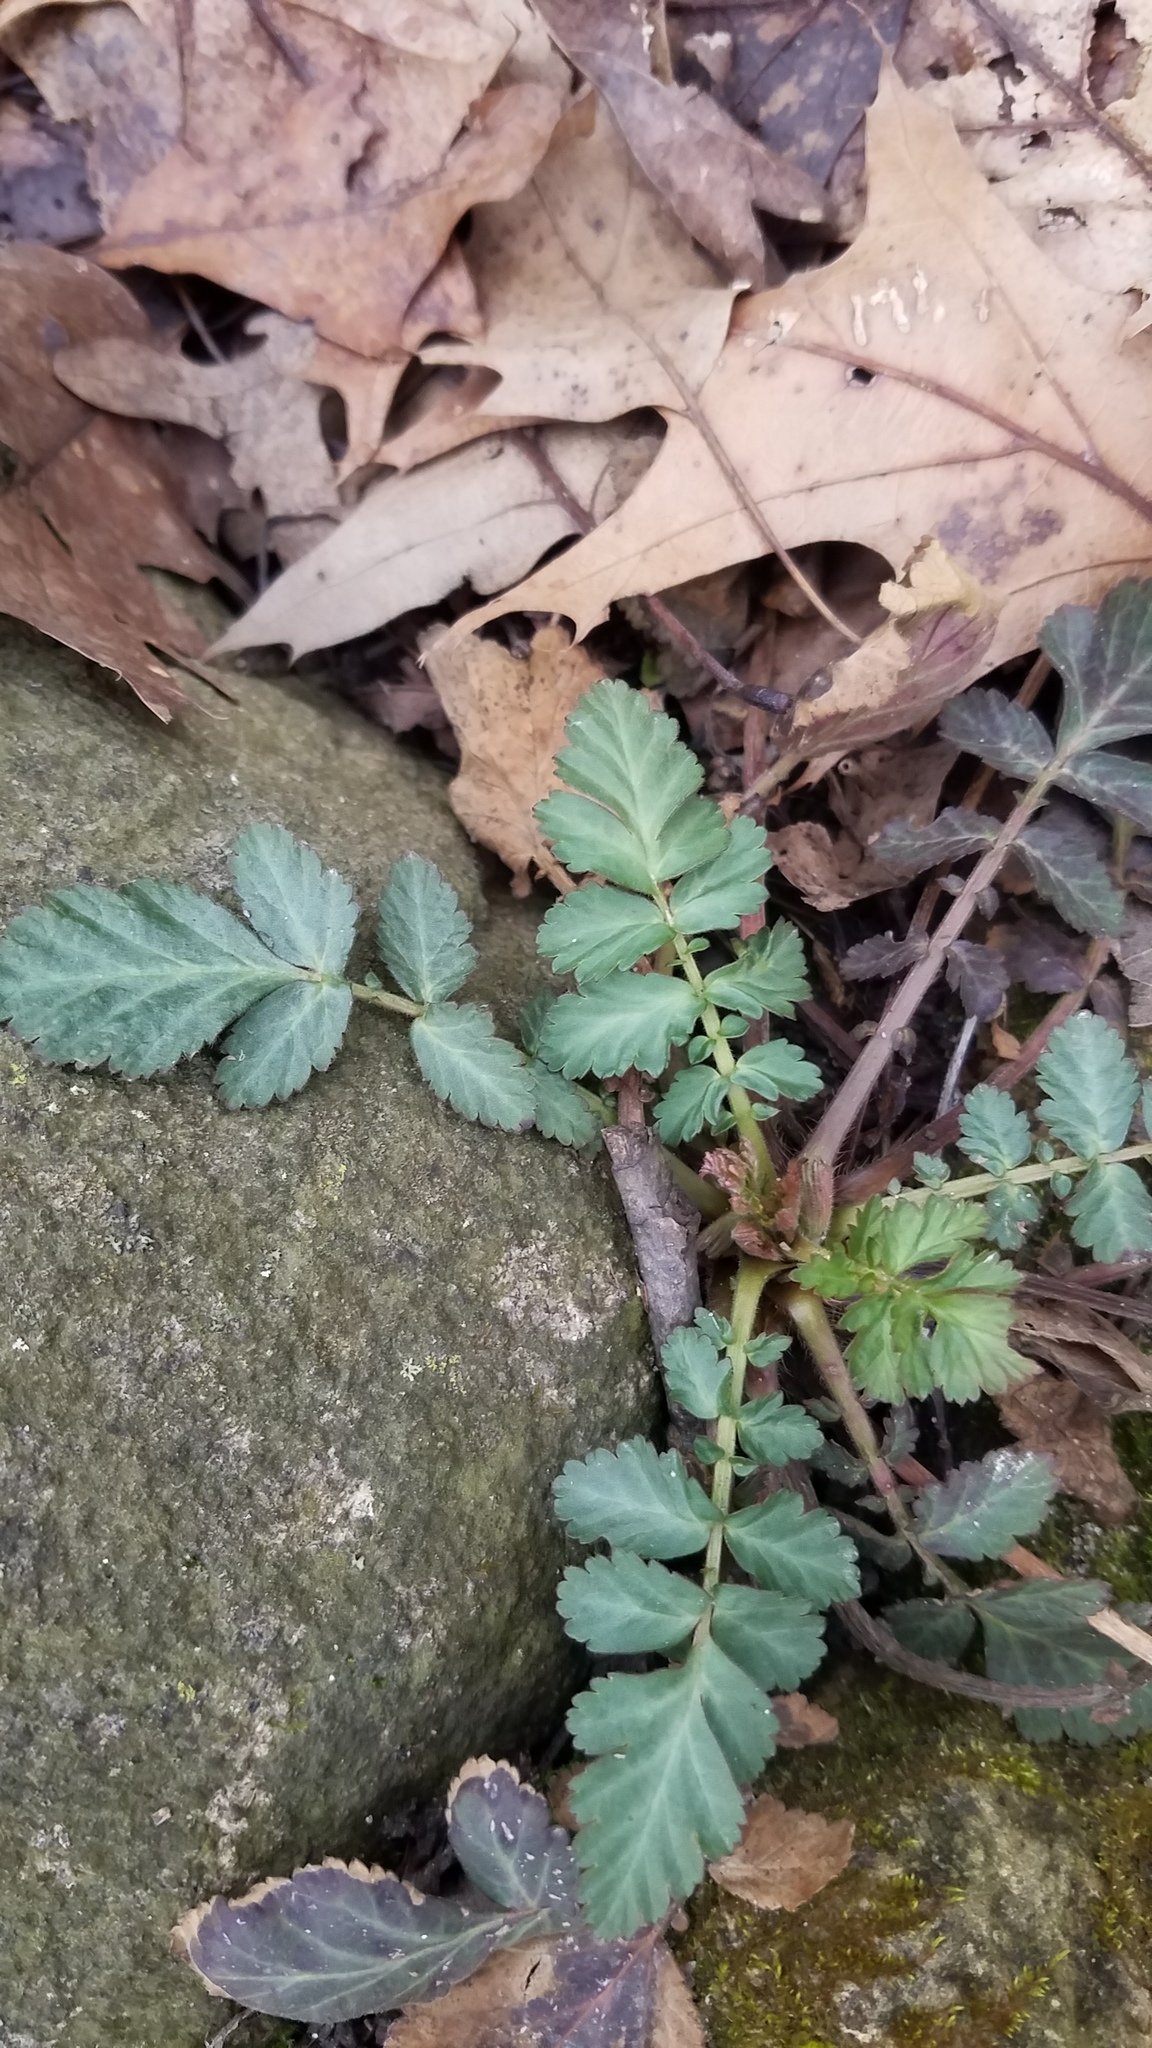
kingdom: Plantae
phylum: Tracheophyta
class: Magnoliopsida
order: Rosales
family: Rosaceae
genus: Geum
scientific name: Geum canadense
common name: White avens
